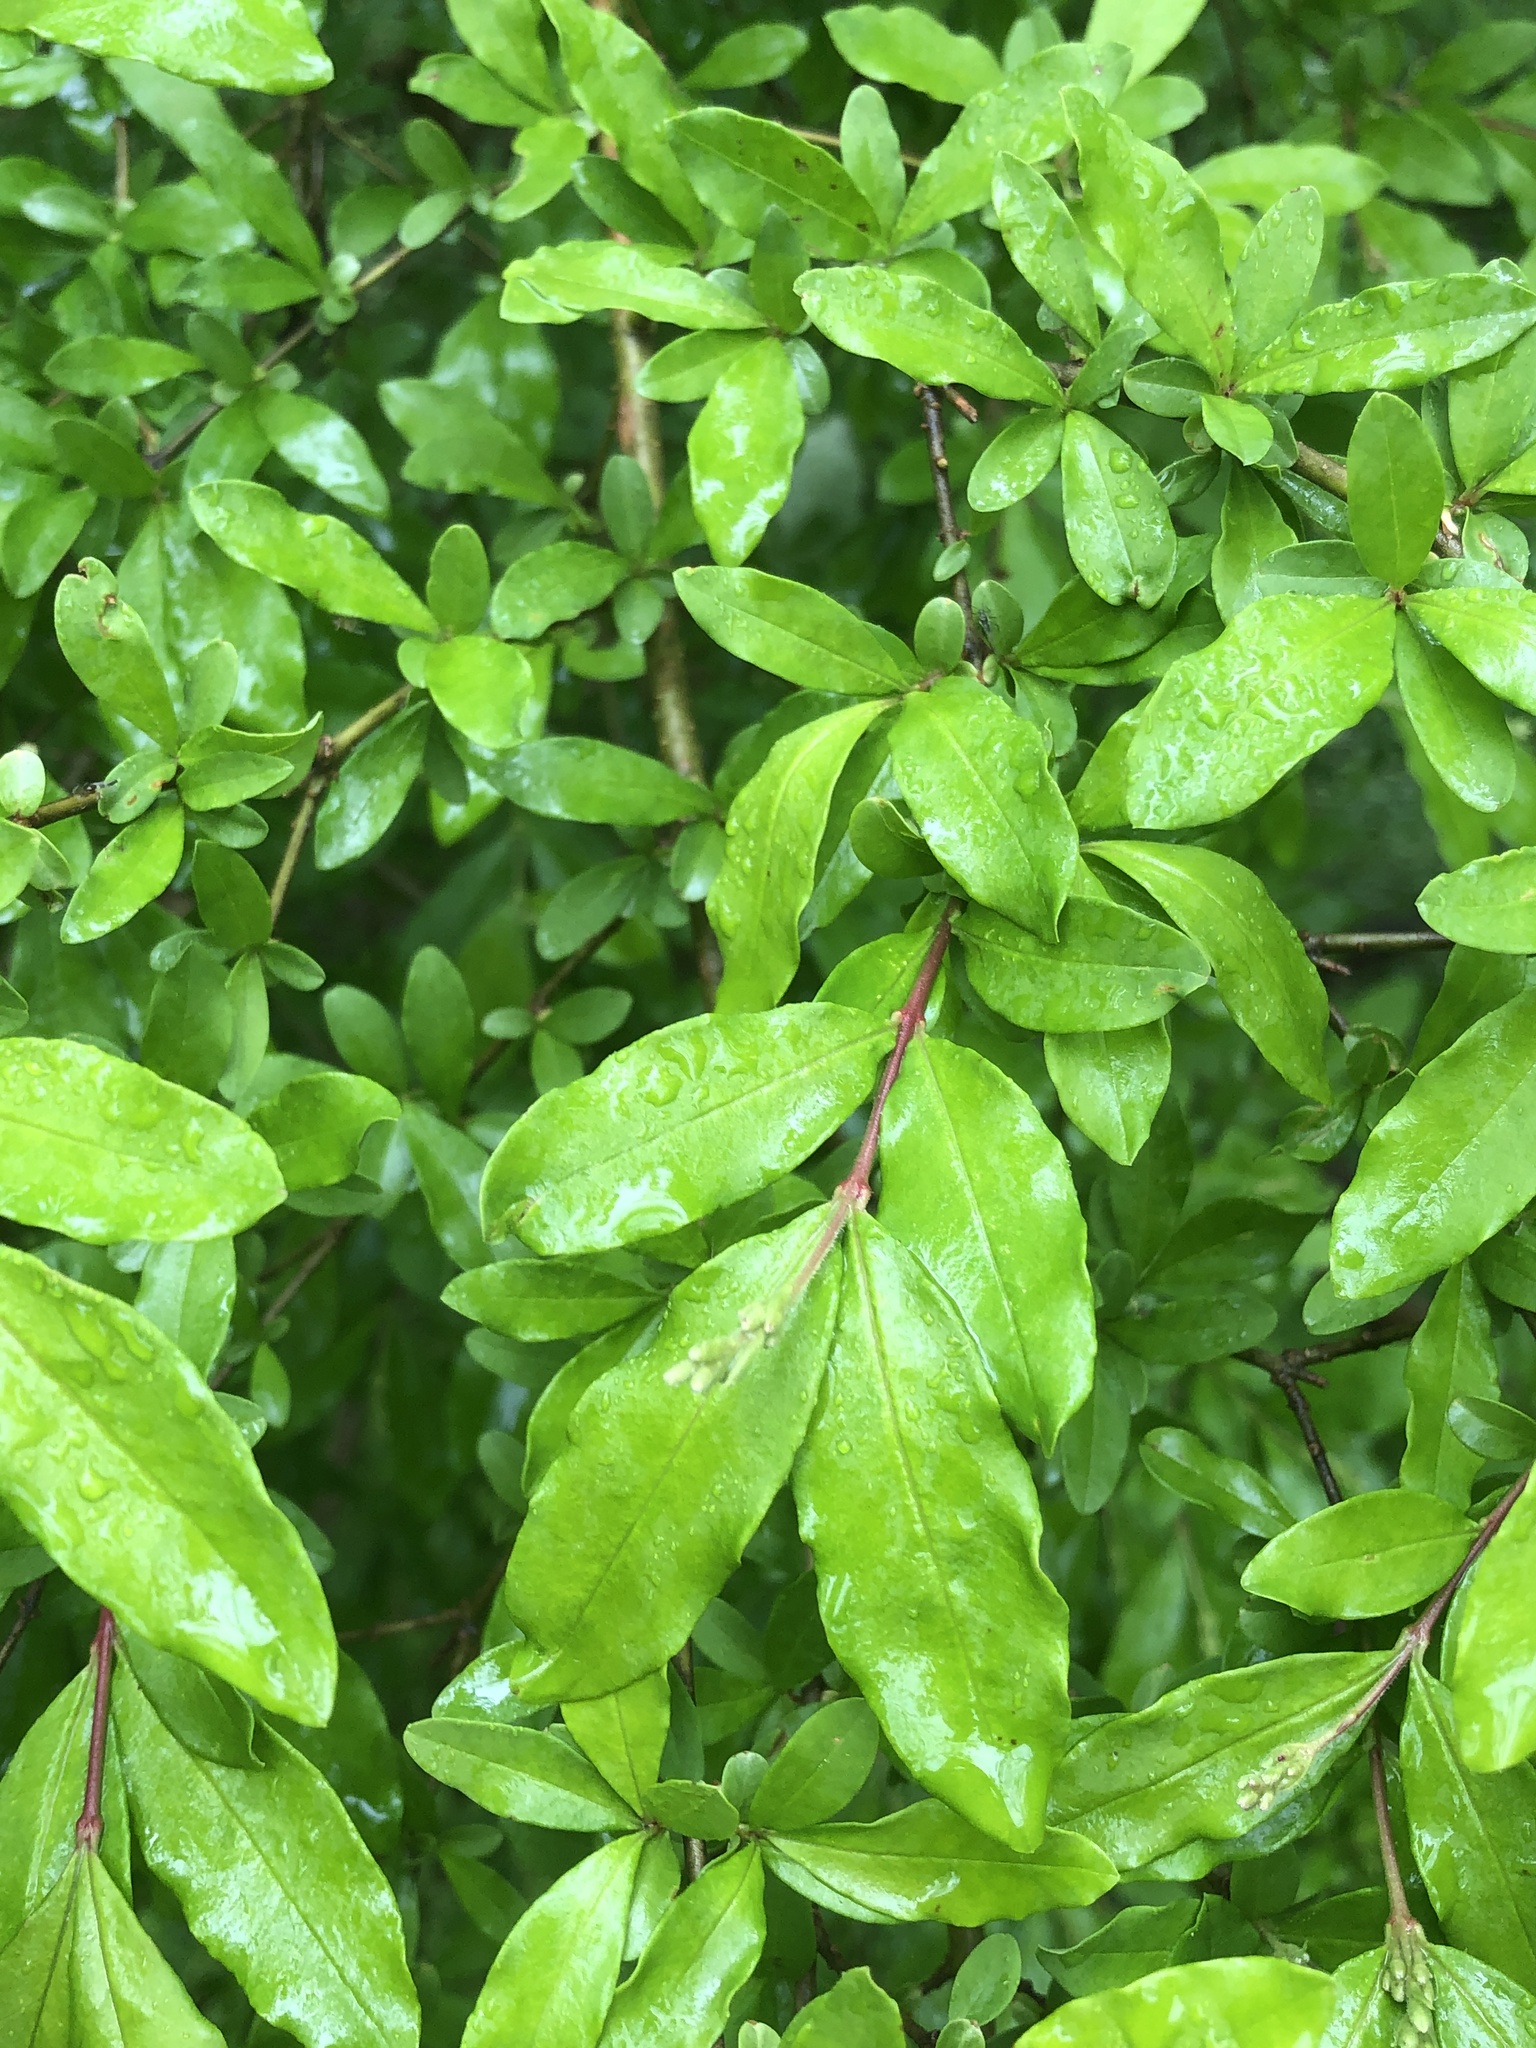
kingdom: Plantae
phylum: Tracheophyta
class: Magnoliopsida
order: Lamiales
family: Oleaceae
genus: Ligustrum
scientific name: Ligustrum obtusifolium
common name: Border privet
